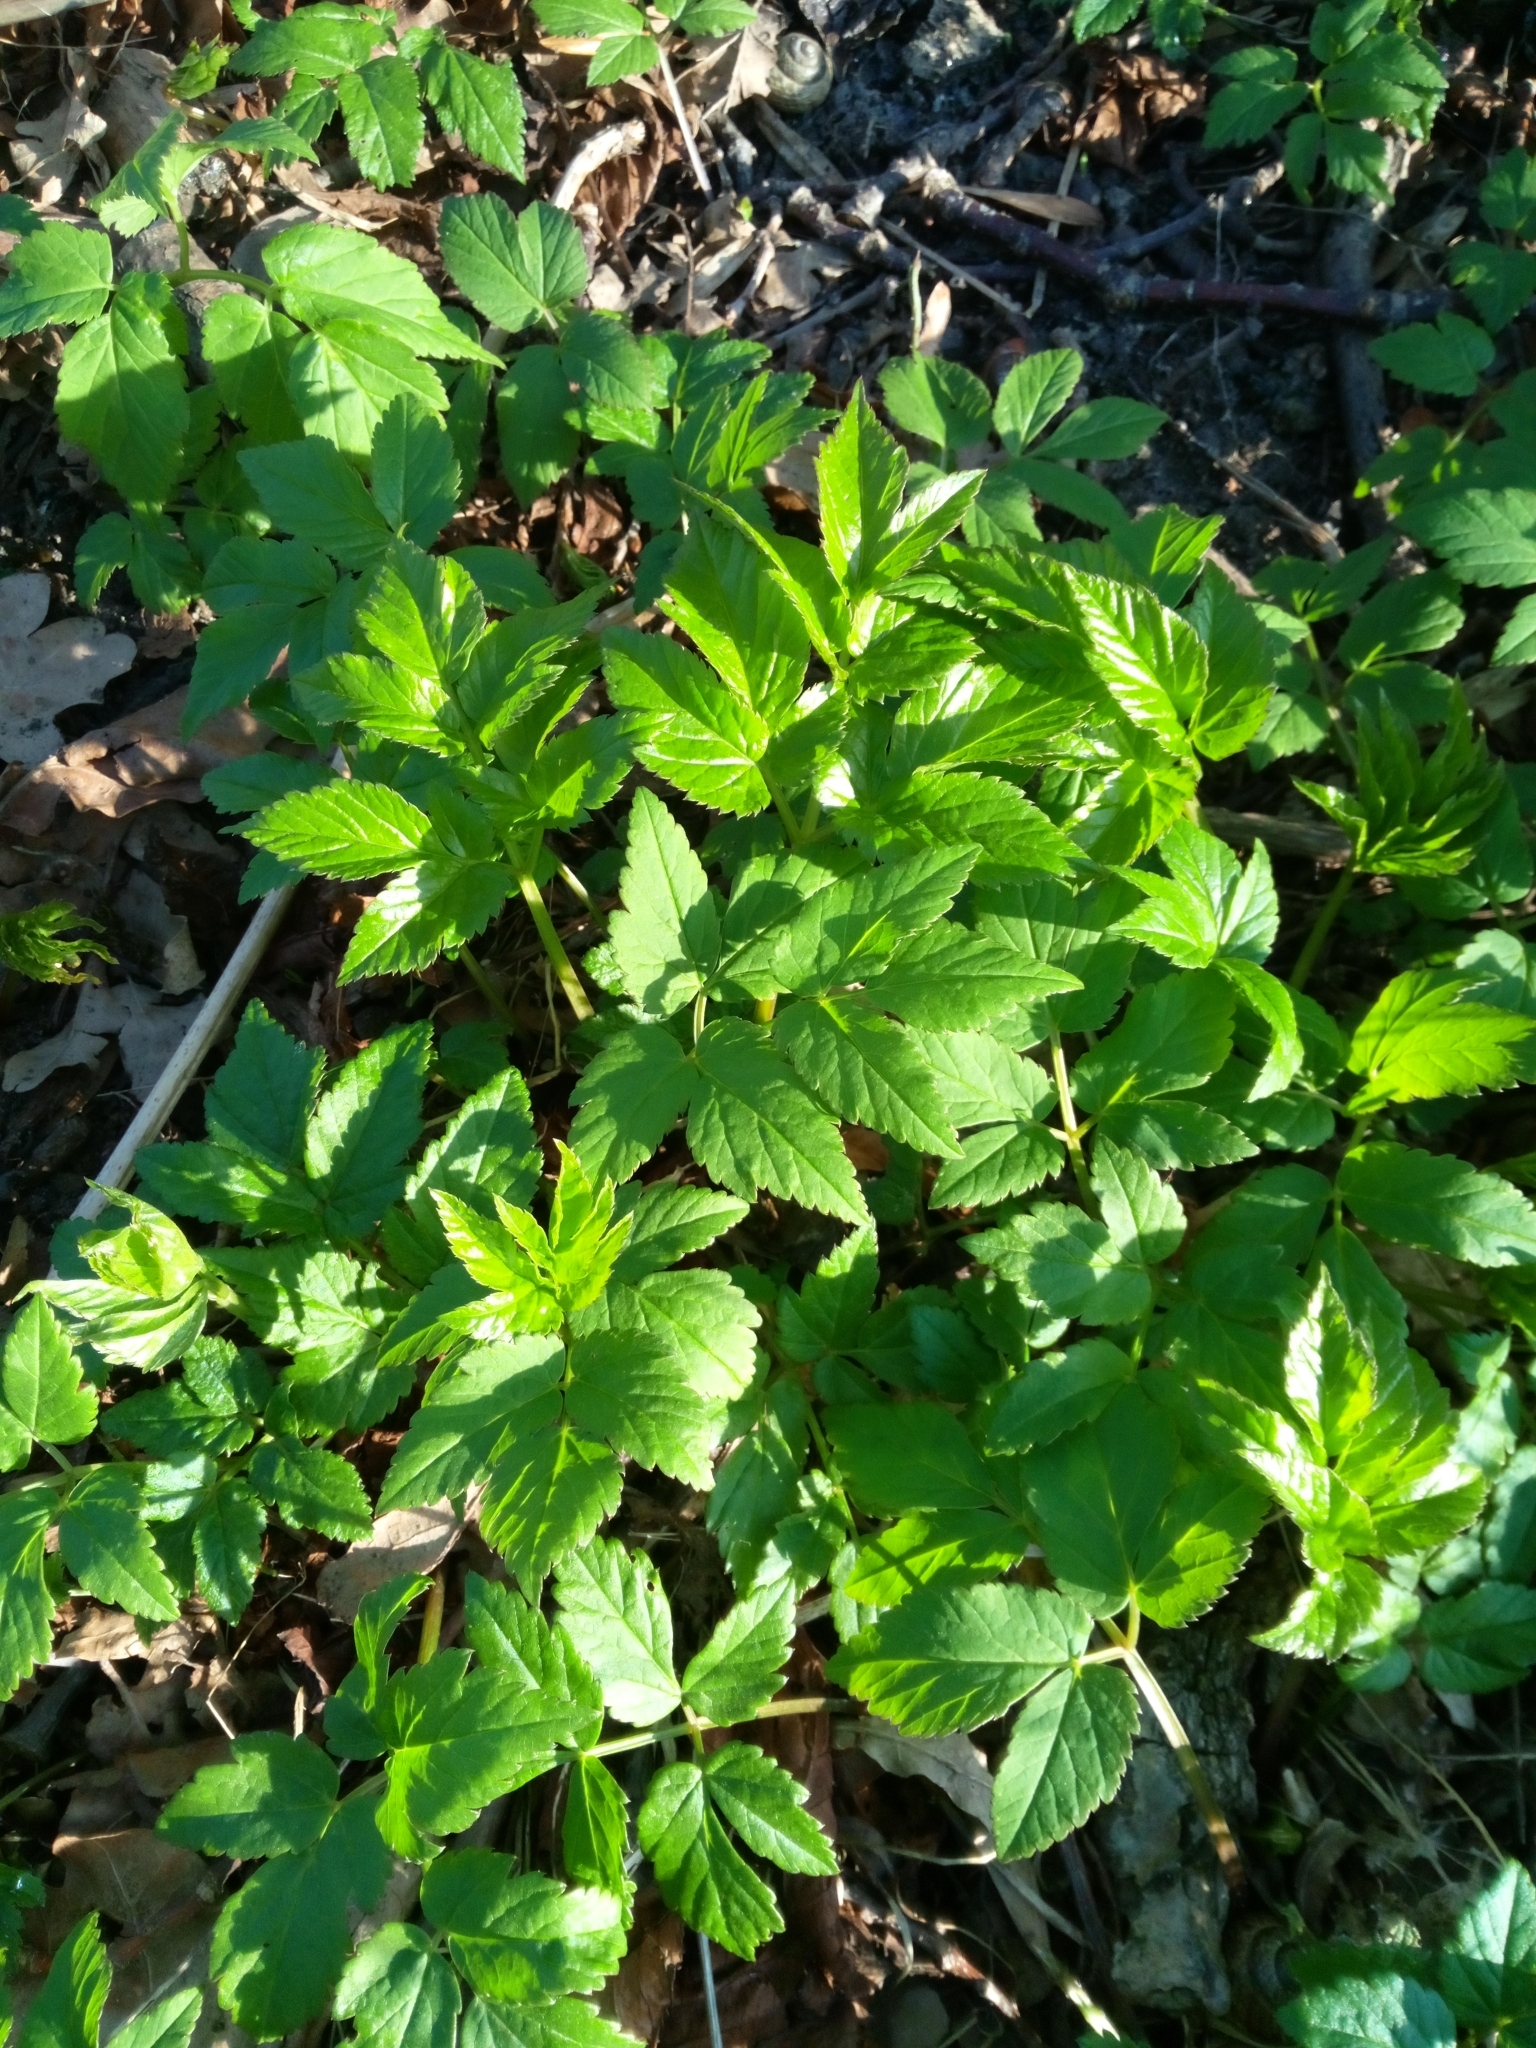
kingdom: Plantae
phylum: Tracheophyta
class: Magnoliopsida
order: Apiales
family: Apiaceae
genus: Aegopodium
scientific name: Aegopodium podagraria
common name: Ground-elder
